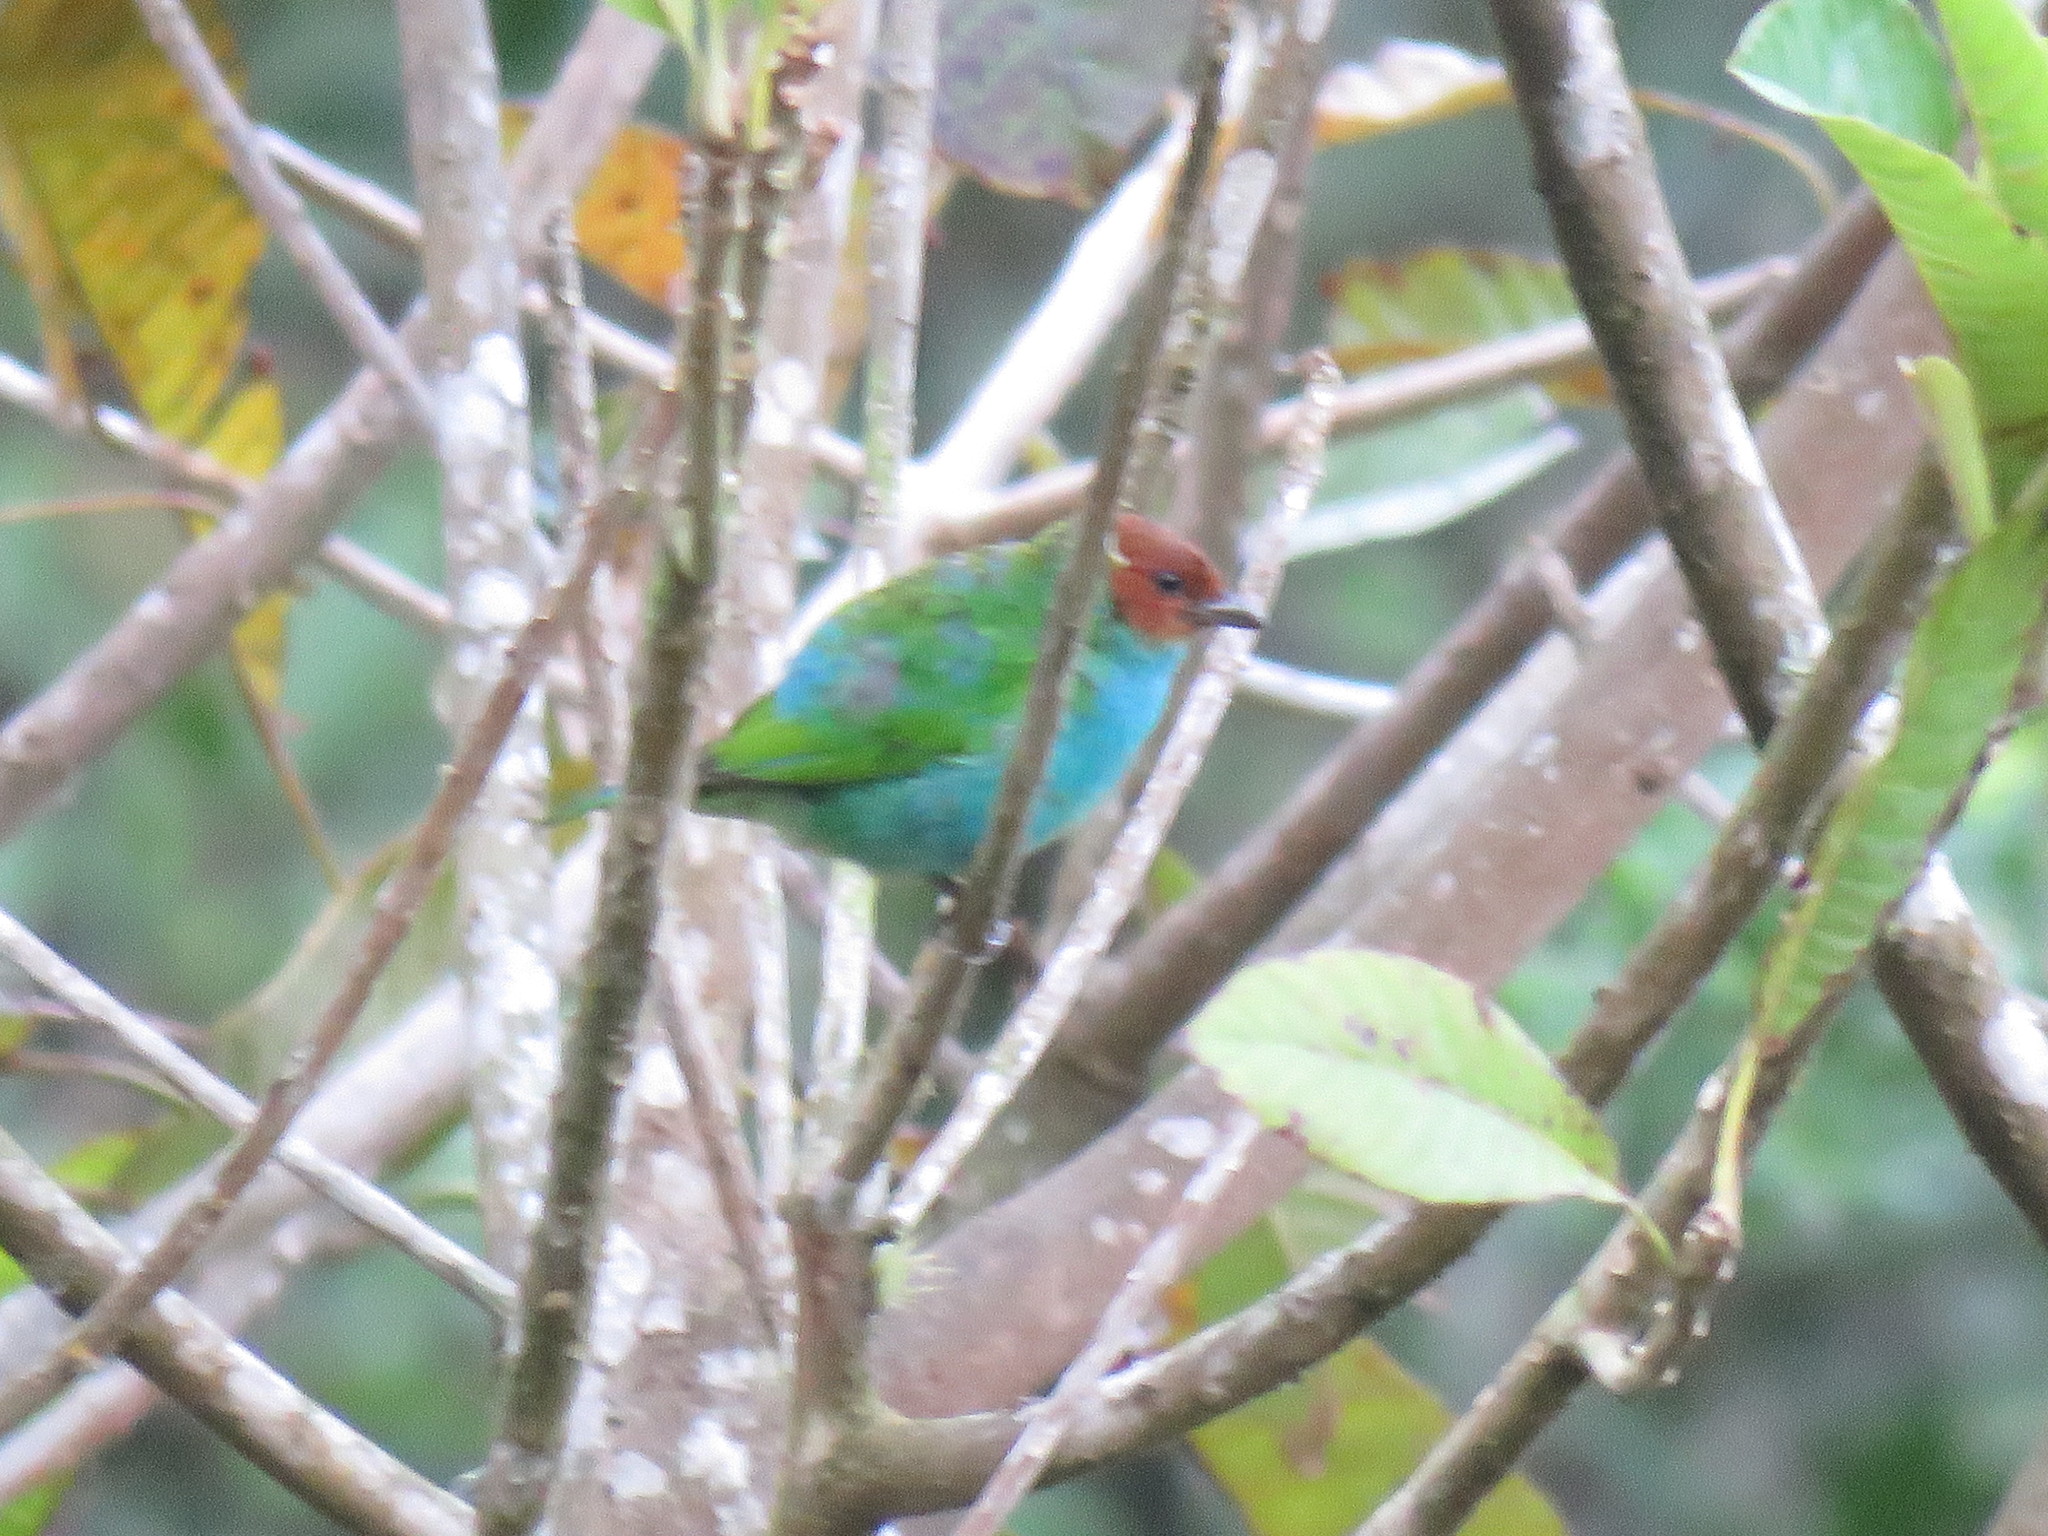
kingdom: Animalia
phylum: Chordata
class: Aves
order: Passeriformes
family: Thraupidae
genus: Tangara
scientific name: Tangara gyrola
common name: Bay-headed tanager
